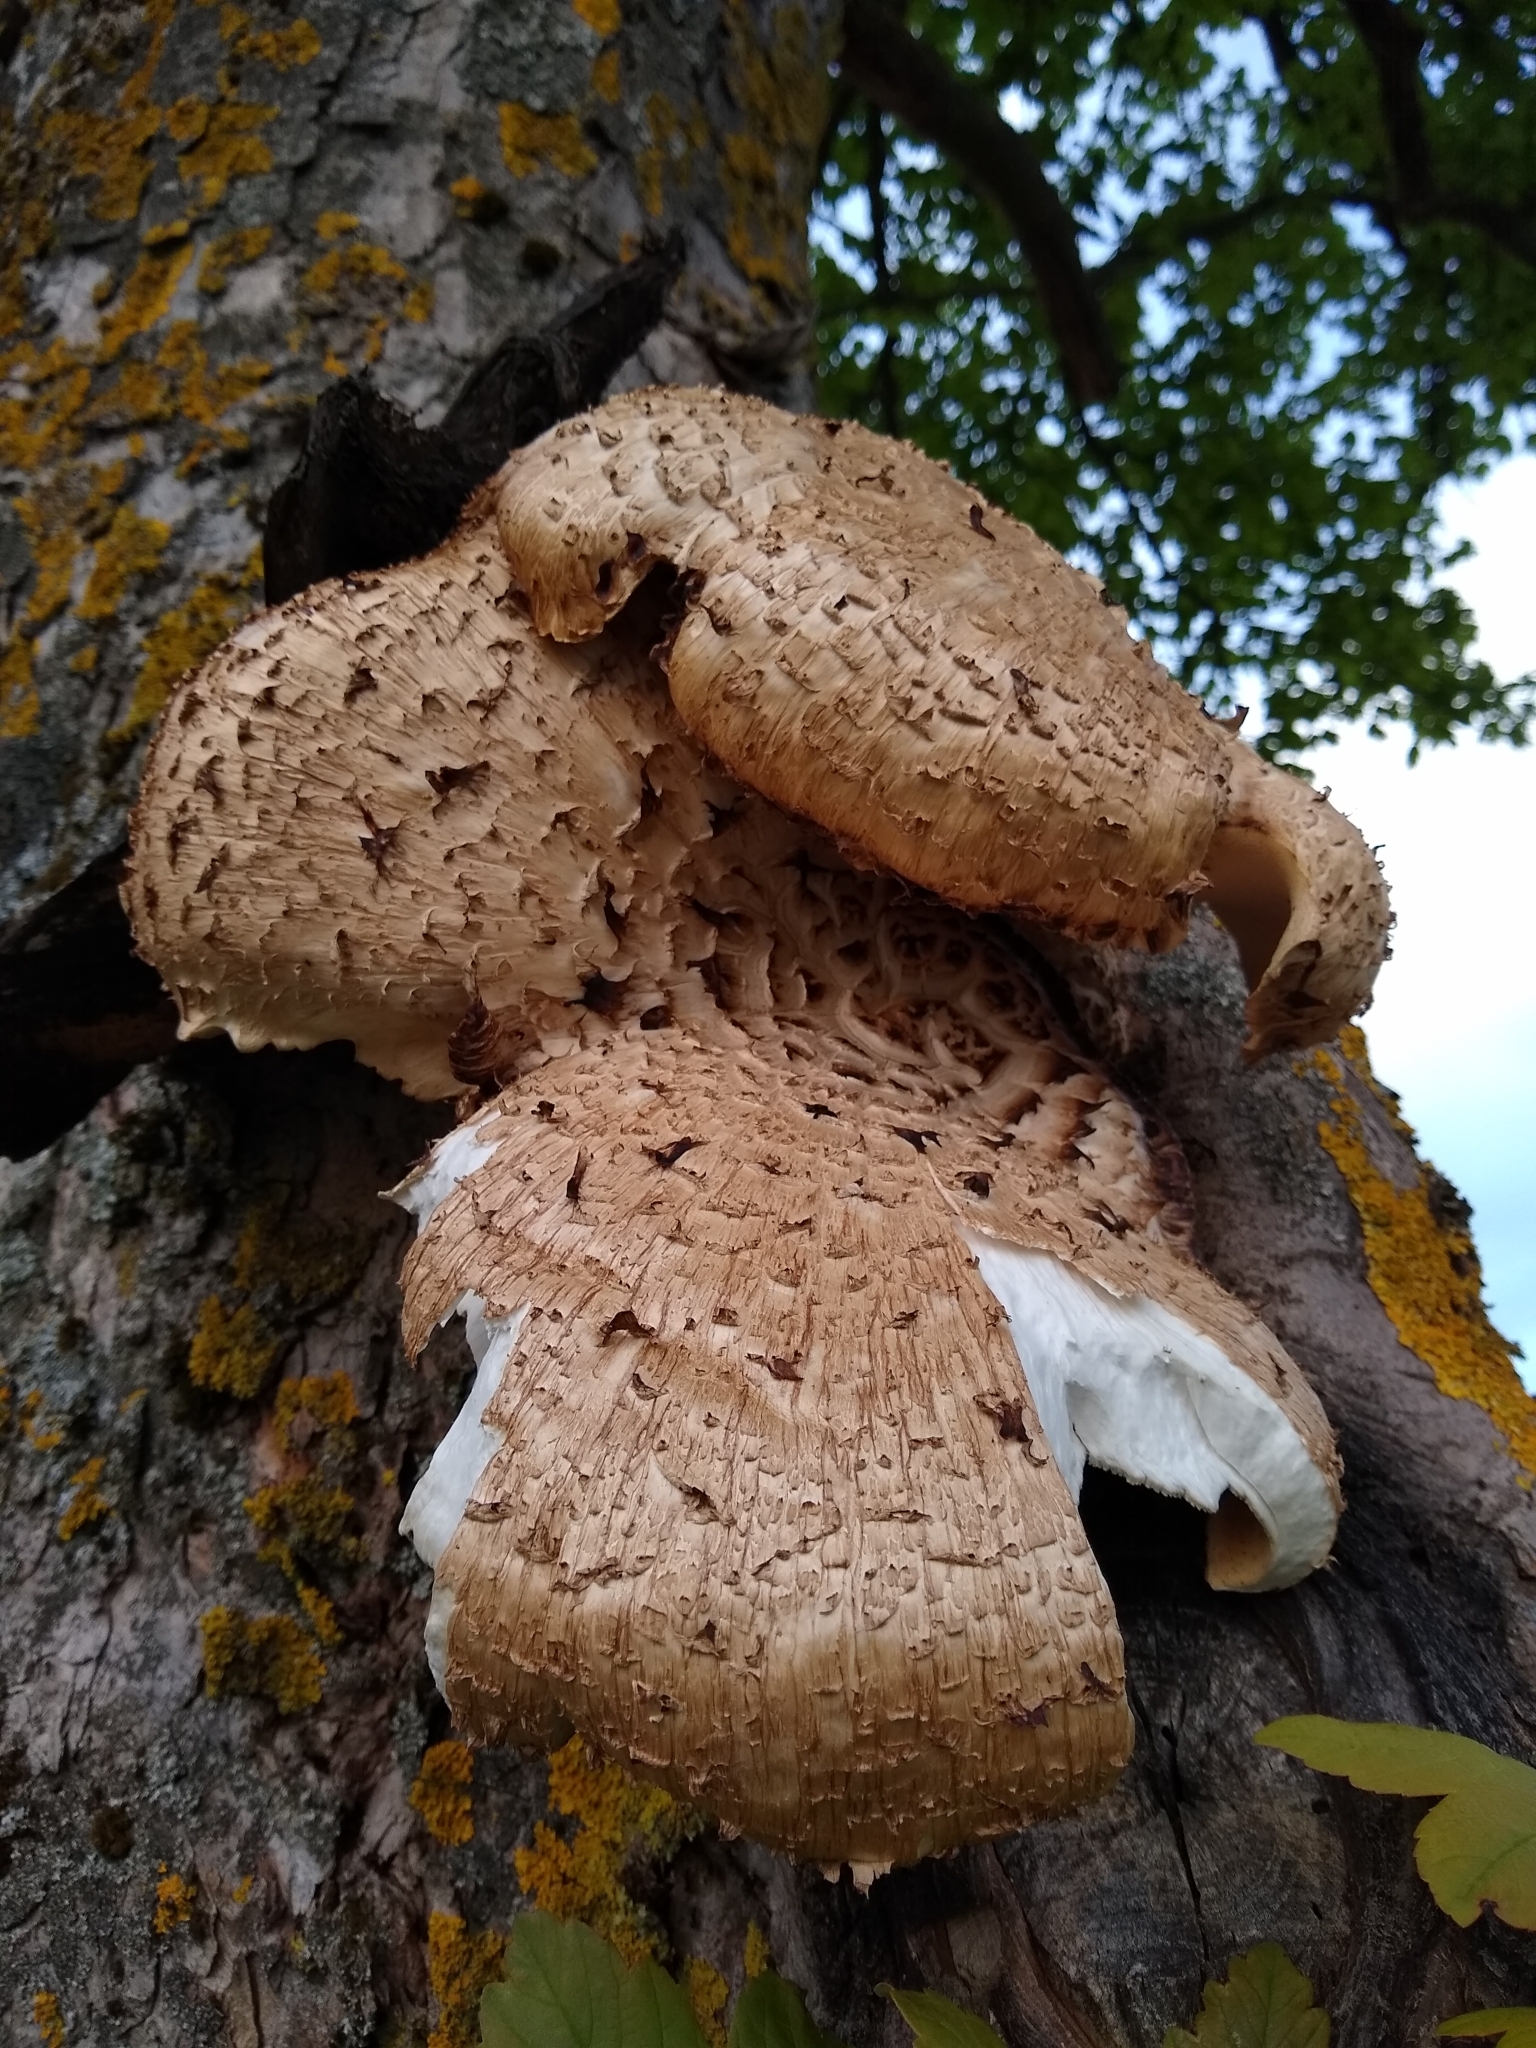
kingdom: Fungi
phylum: Basidiomycota
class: Agaricomycetes
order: Polyporales
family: Polyporaceae
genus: Cerioporus
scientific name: Cerioporus squamosus
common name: Dryad's saddle
